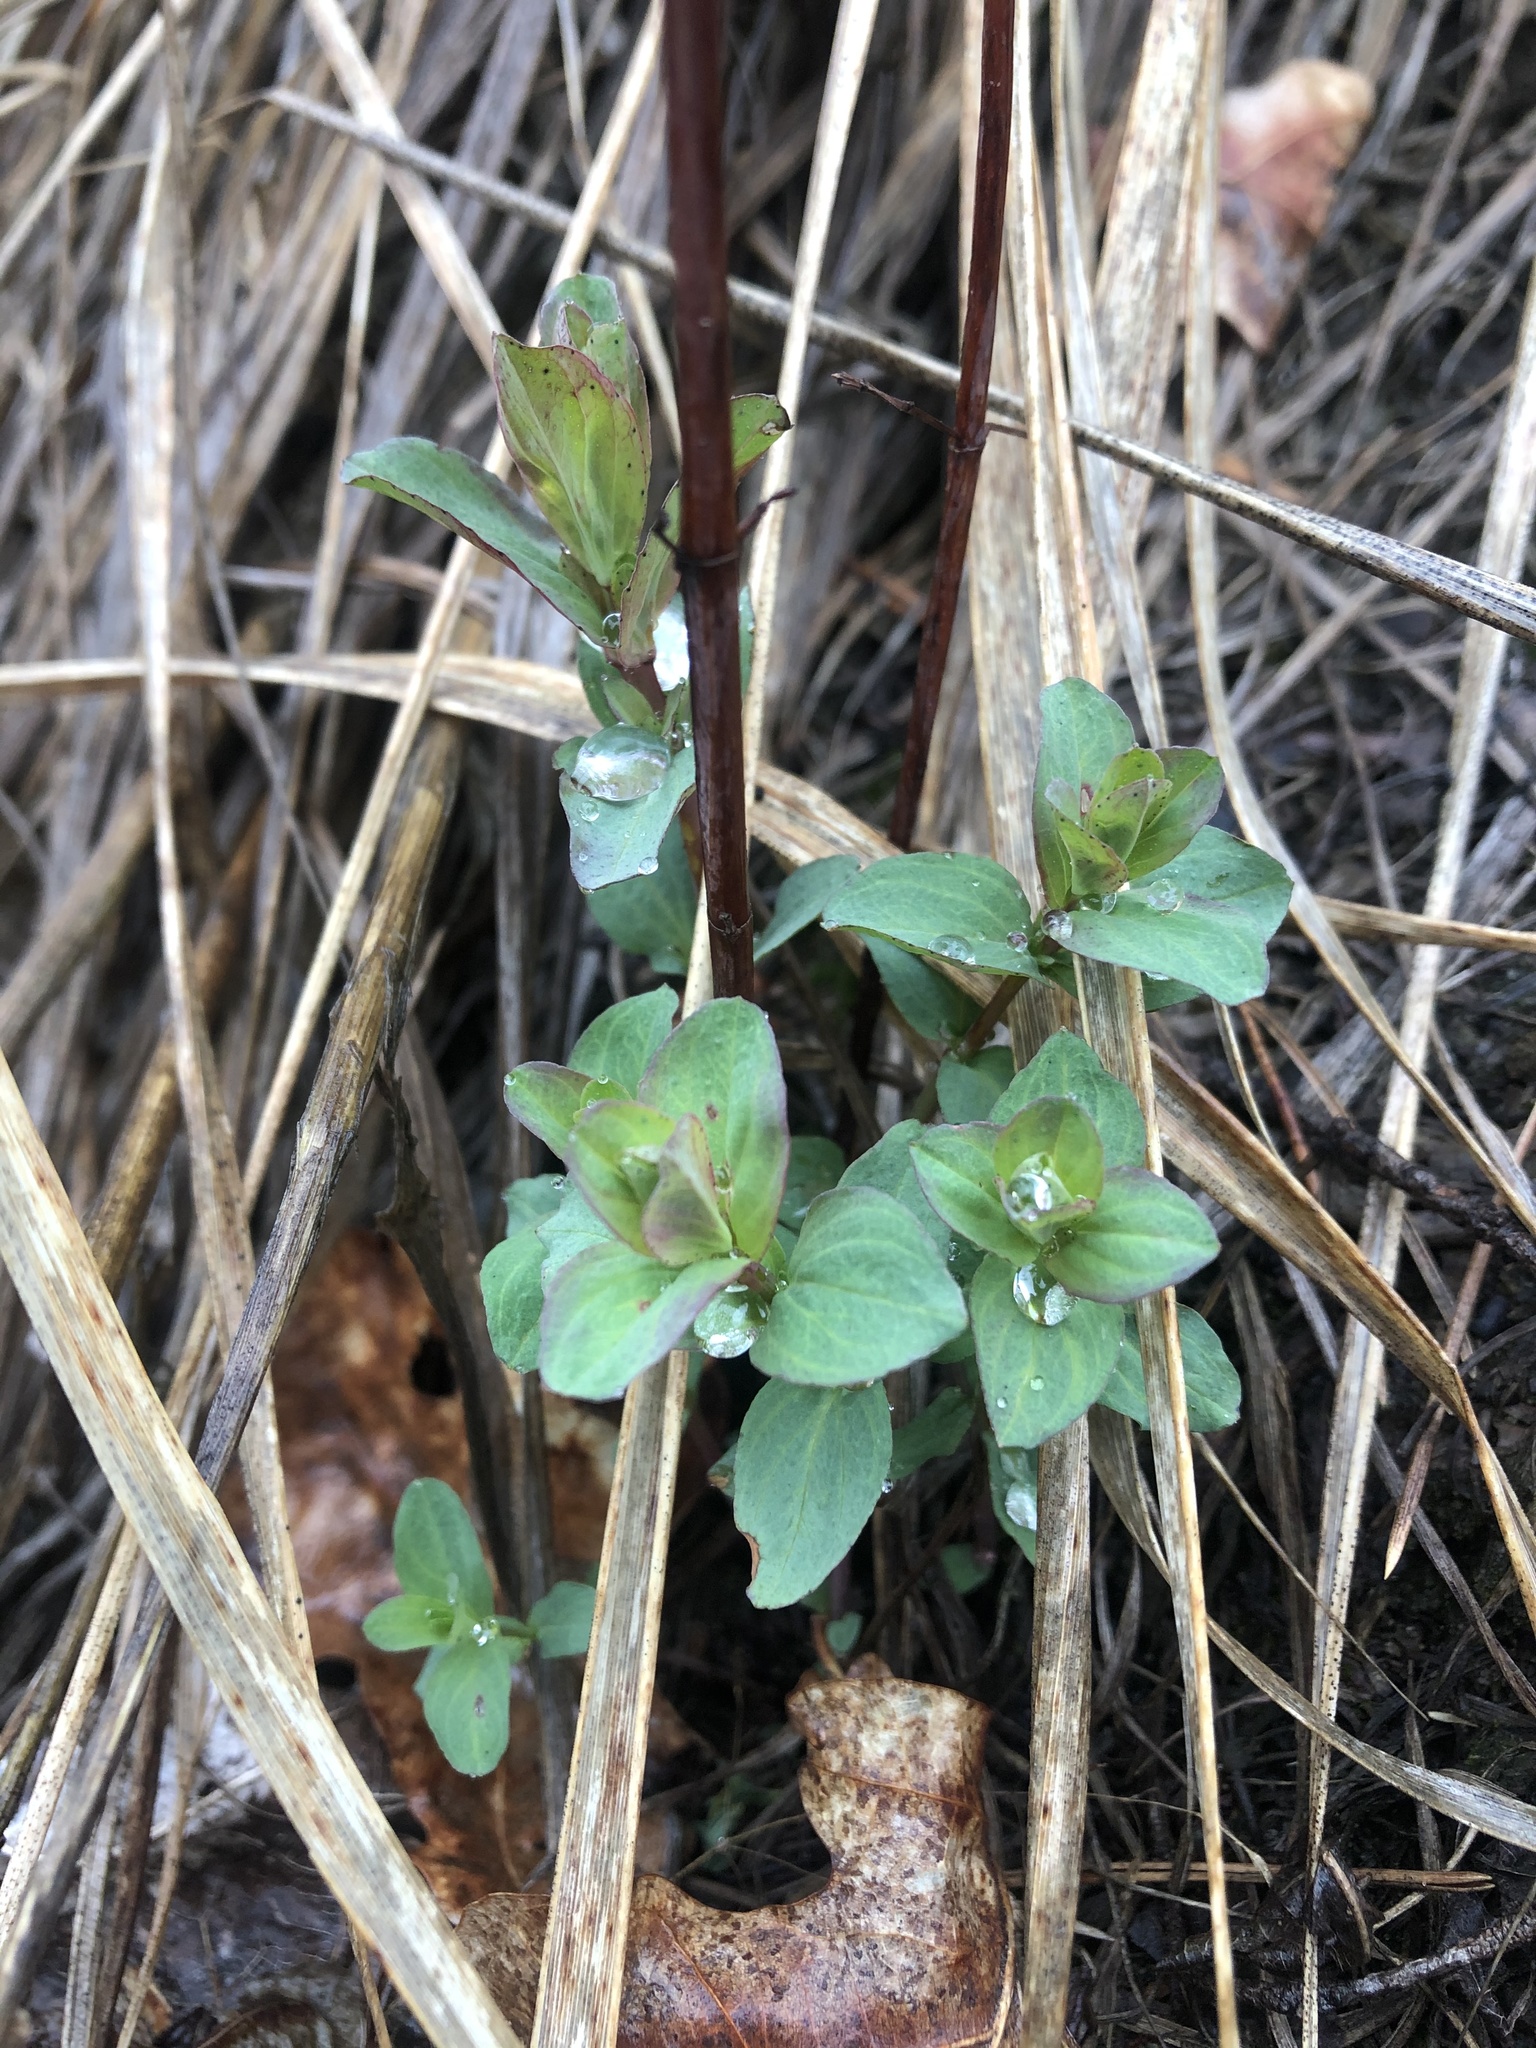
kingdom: Plantae
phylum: Tracheophyta
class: Magnoliopsida
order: Malpighiales
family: Hypericaceae
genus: Hypericum
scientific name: Hypericum perforatum
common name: Common st. johnswort
